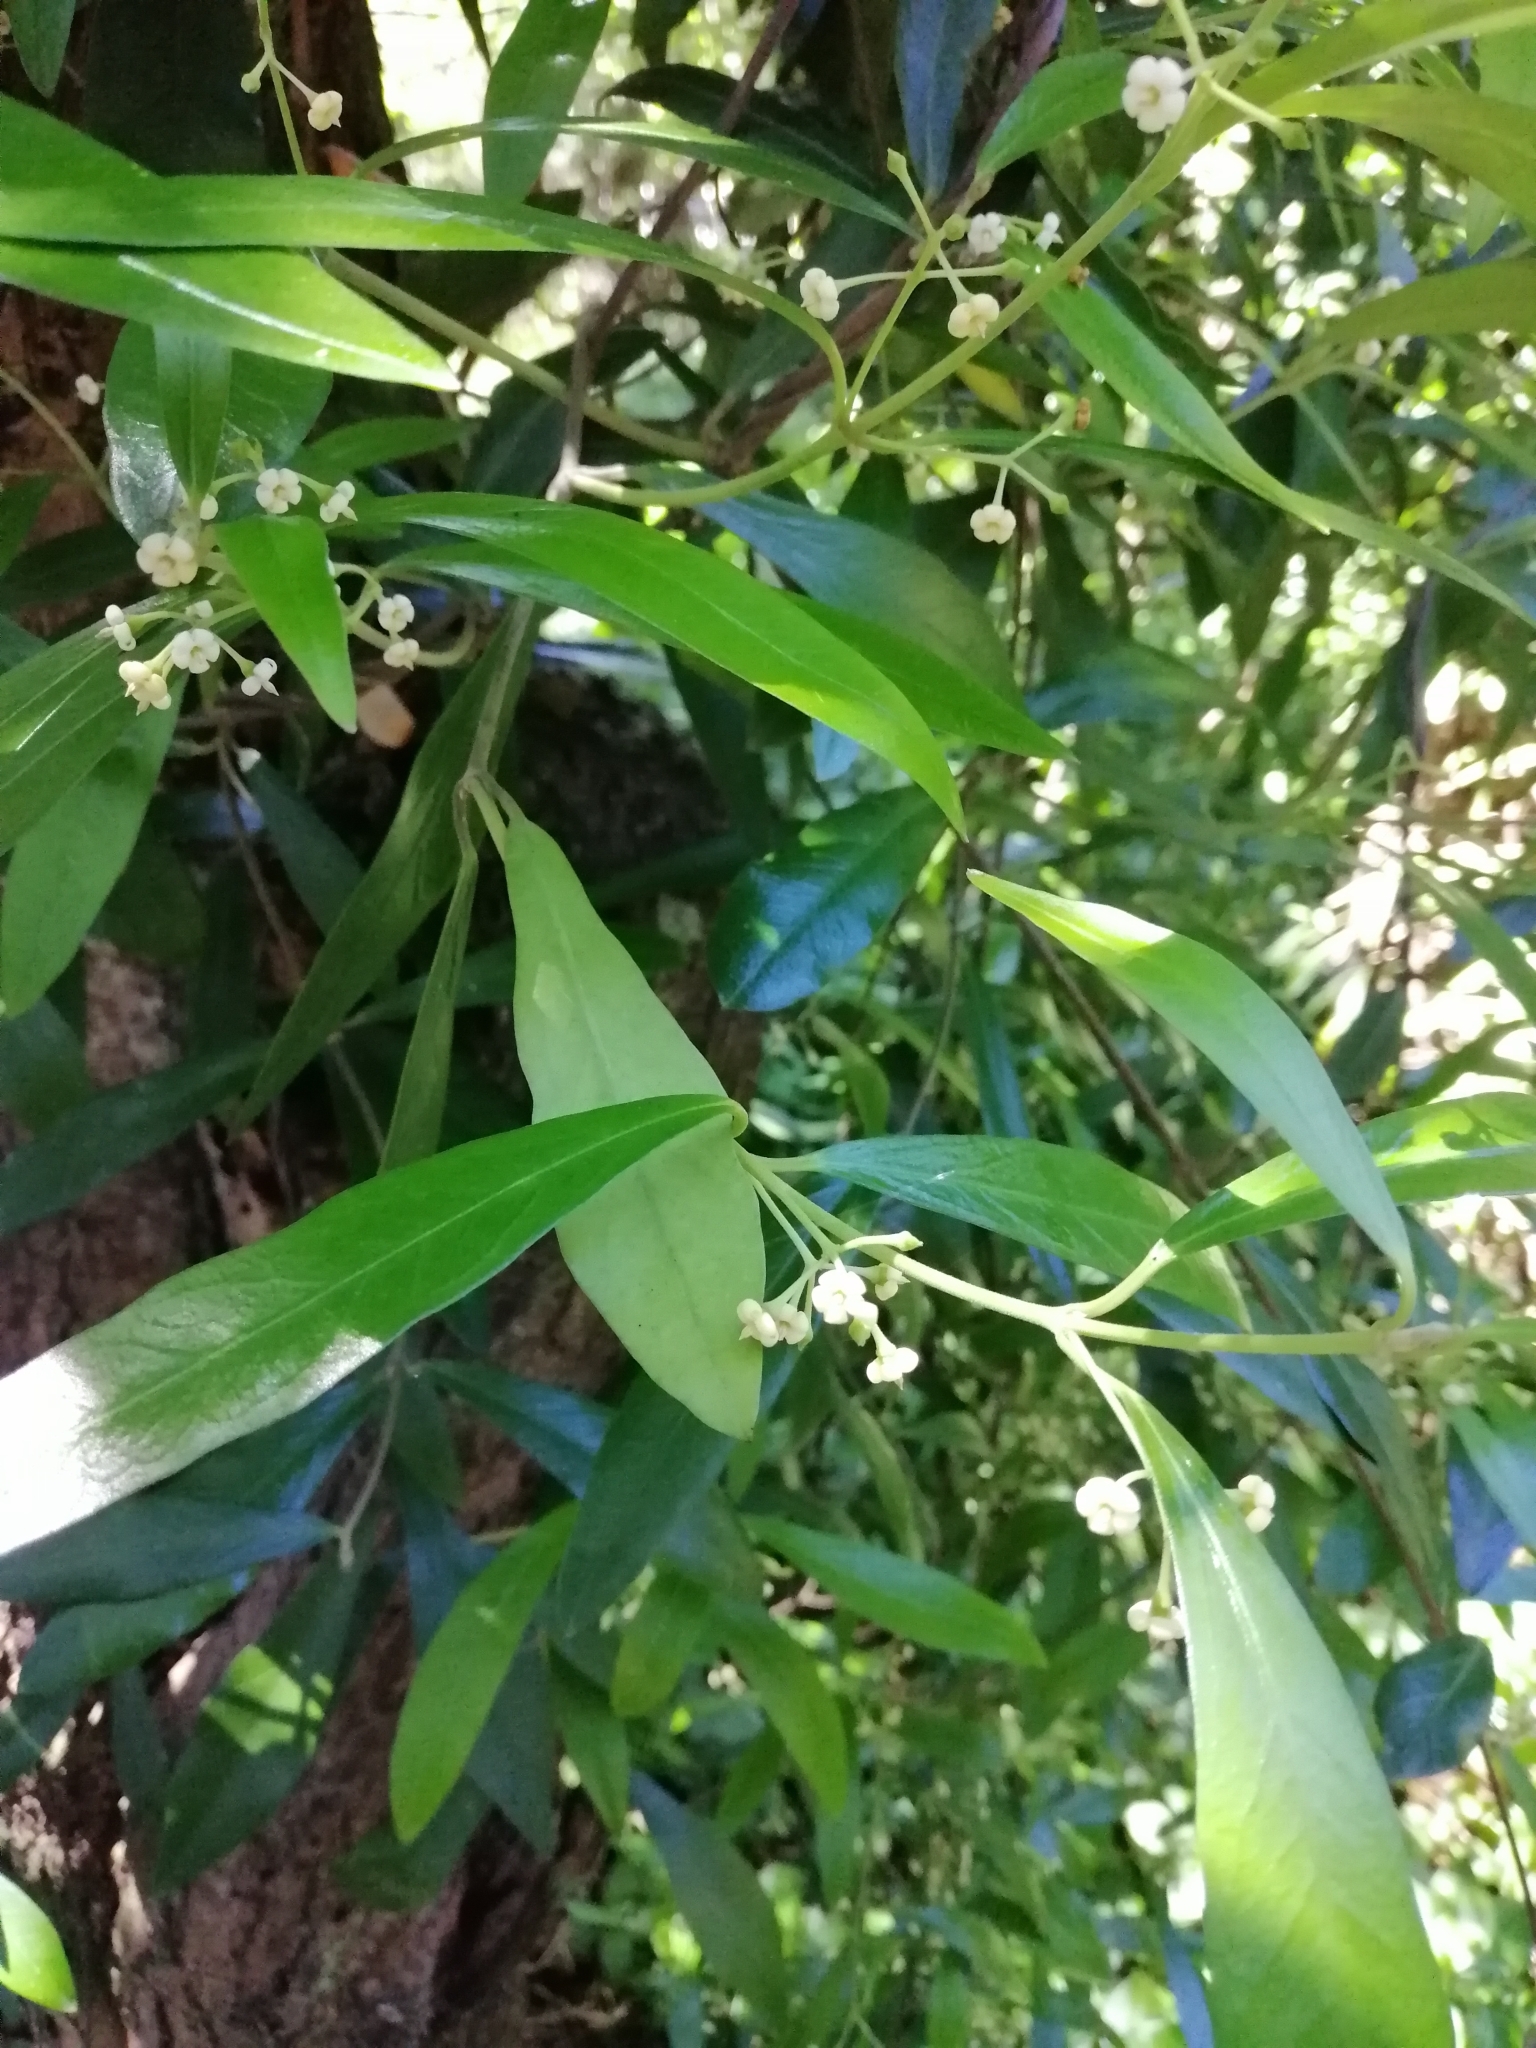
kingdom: Plantae
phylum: Tracheophyta
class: Magnoliopsida
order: Gentianales
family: Apocynaceae
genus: Parsonsia
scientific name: Parsonsia heterophylla
